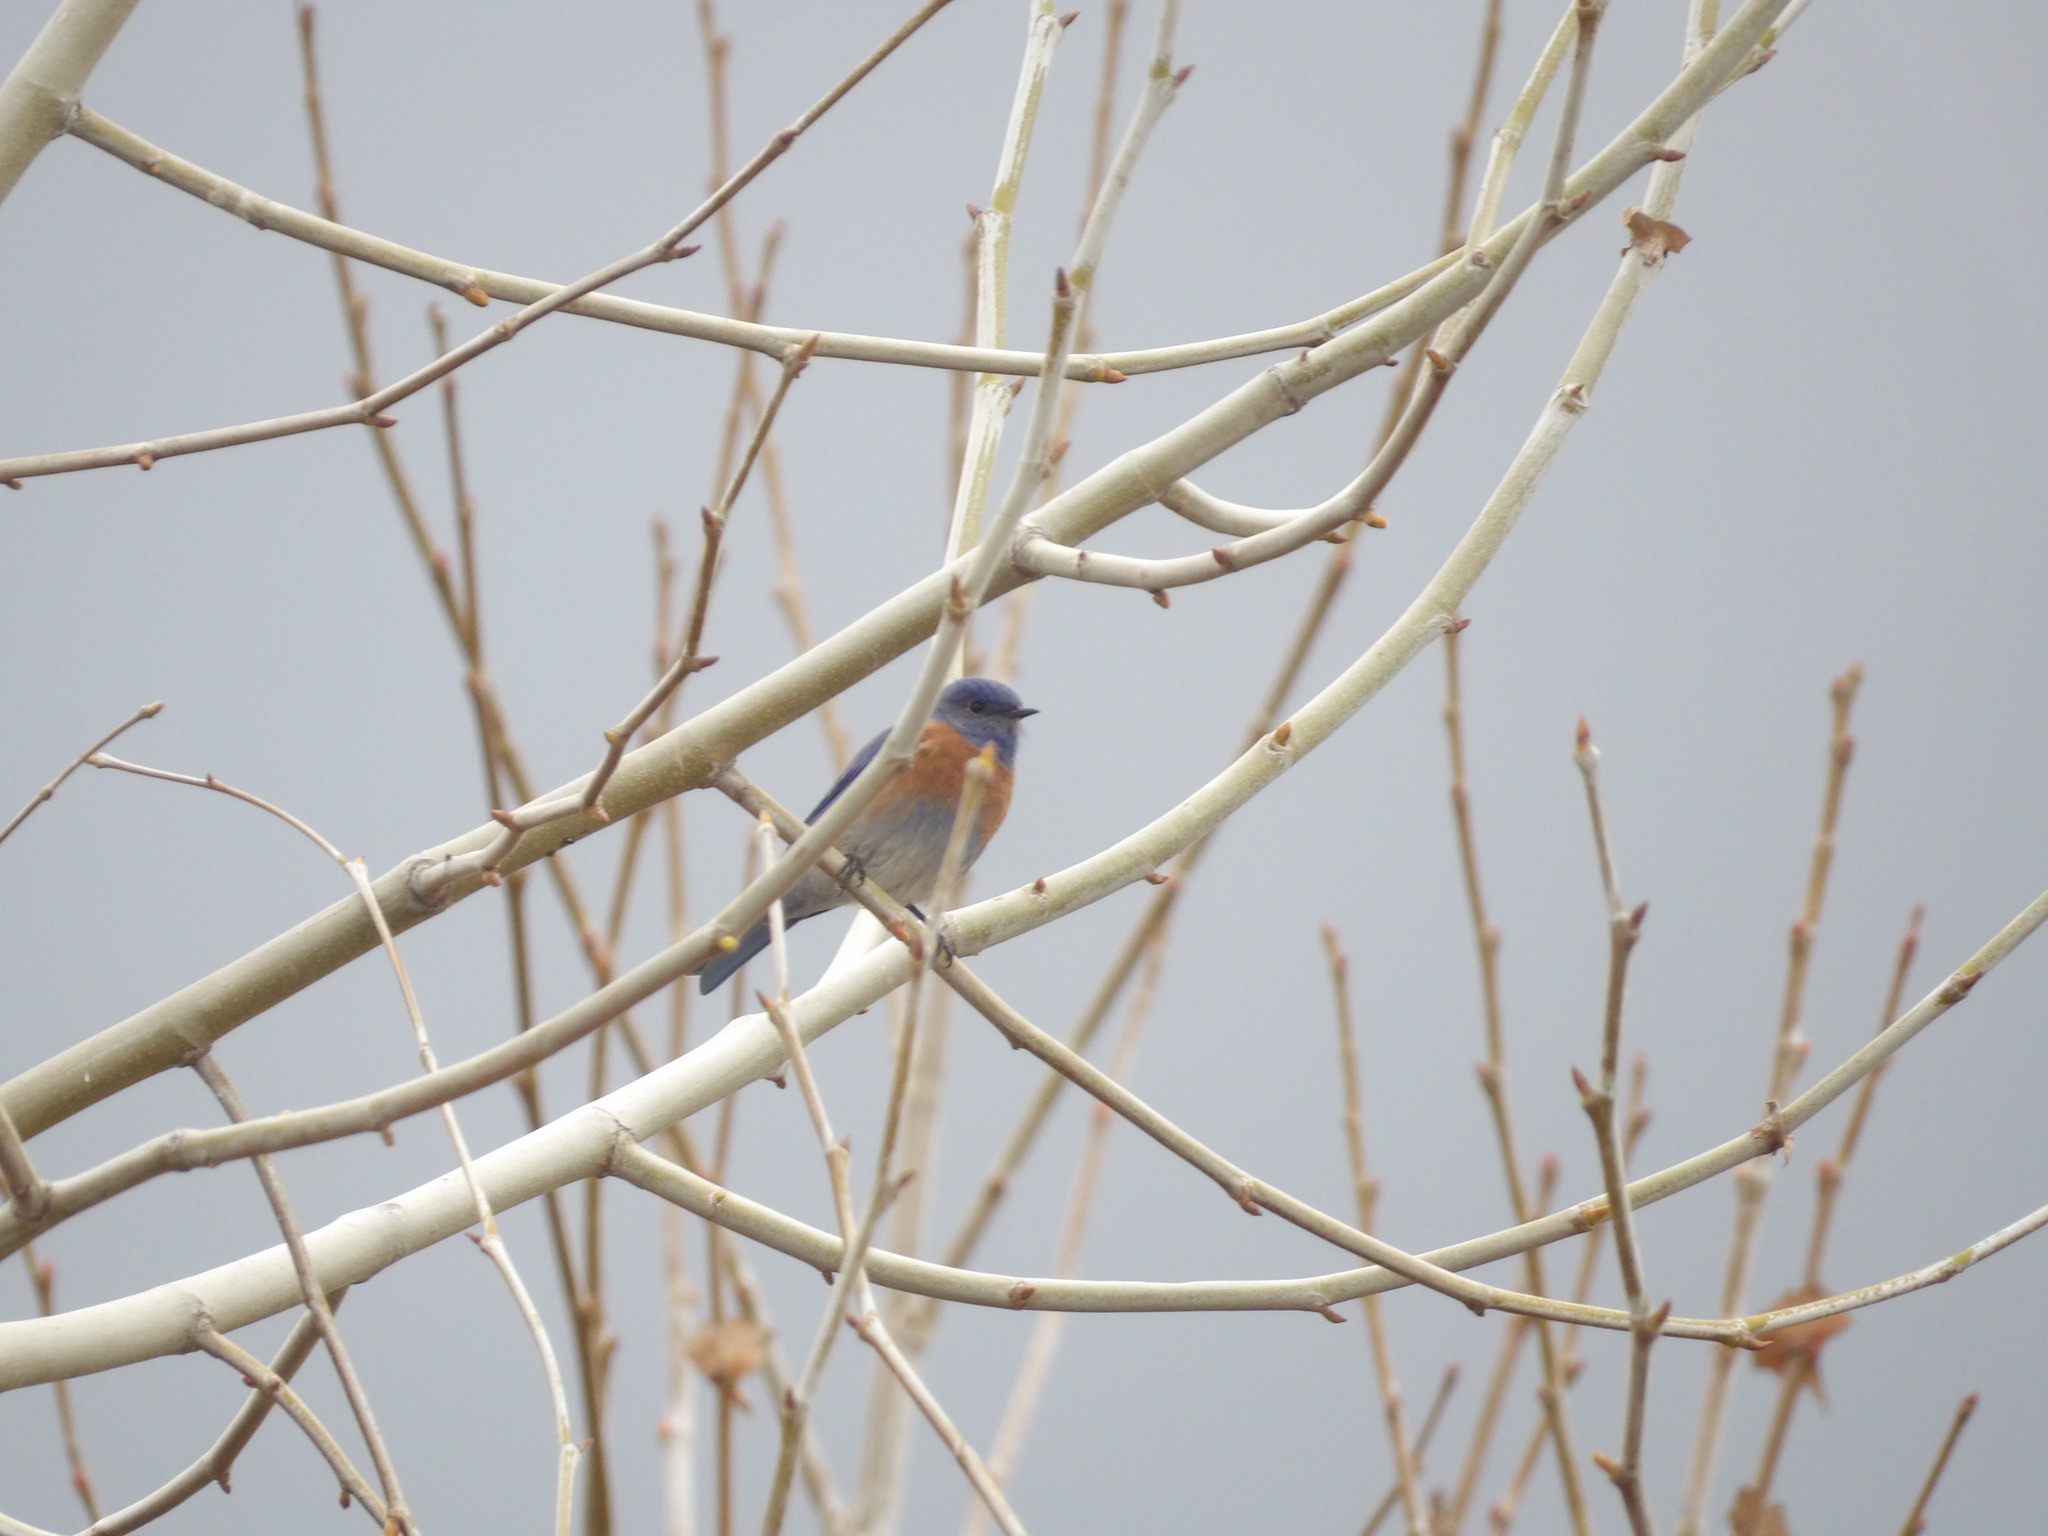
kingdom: Animalia
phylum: Chordata
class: Aves
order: Passeriformes
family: Turdidae
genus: Sialia
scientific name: Sialia mexicana
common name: Western bluebird
